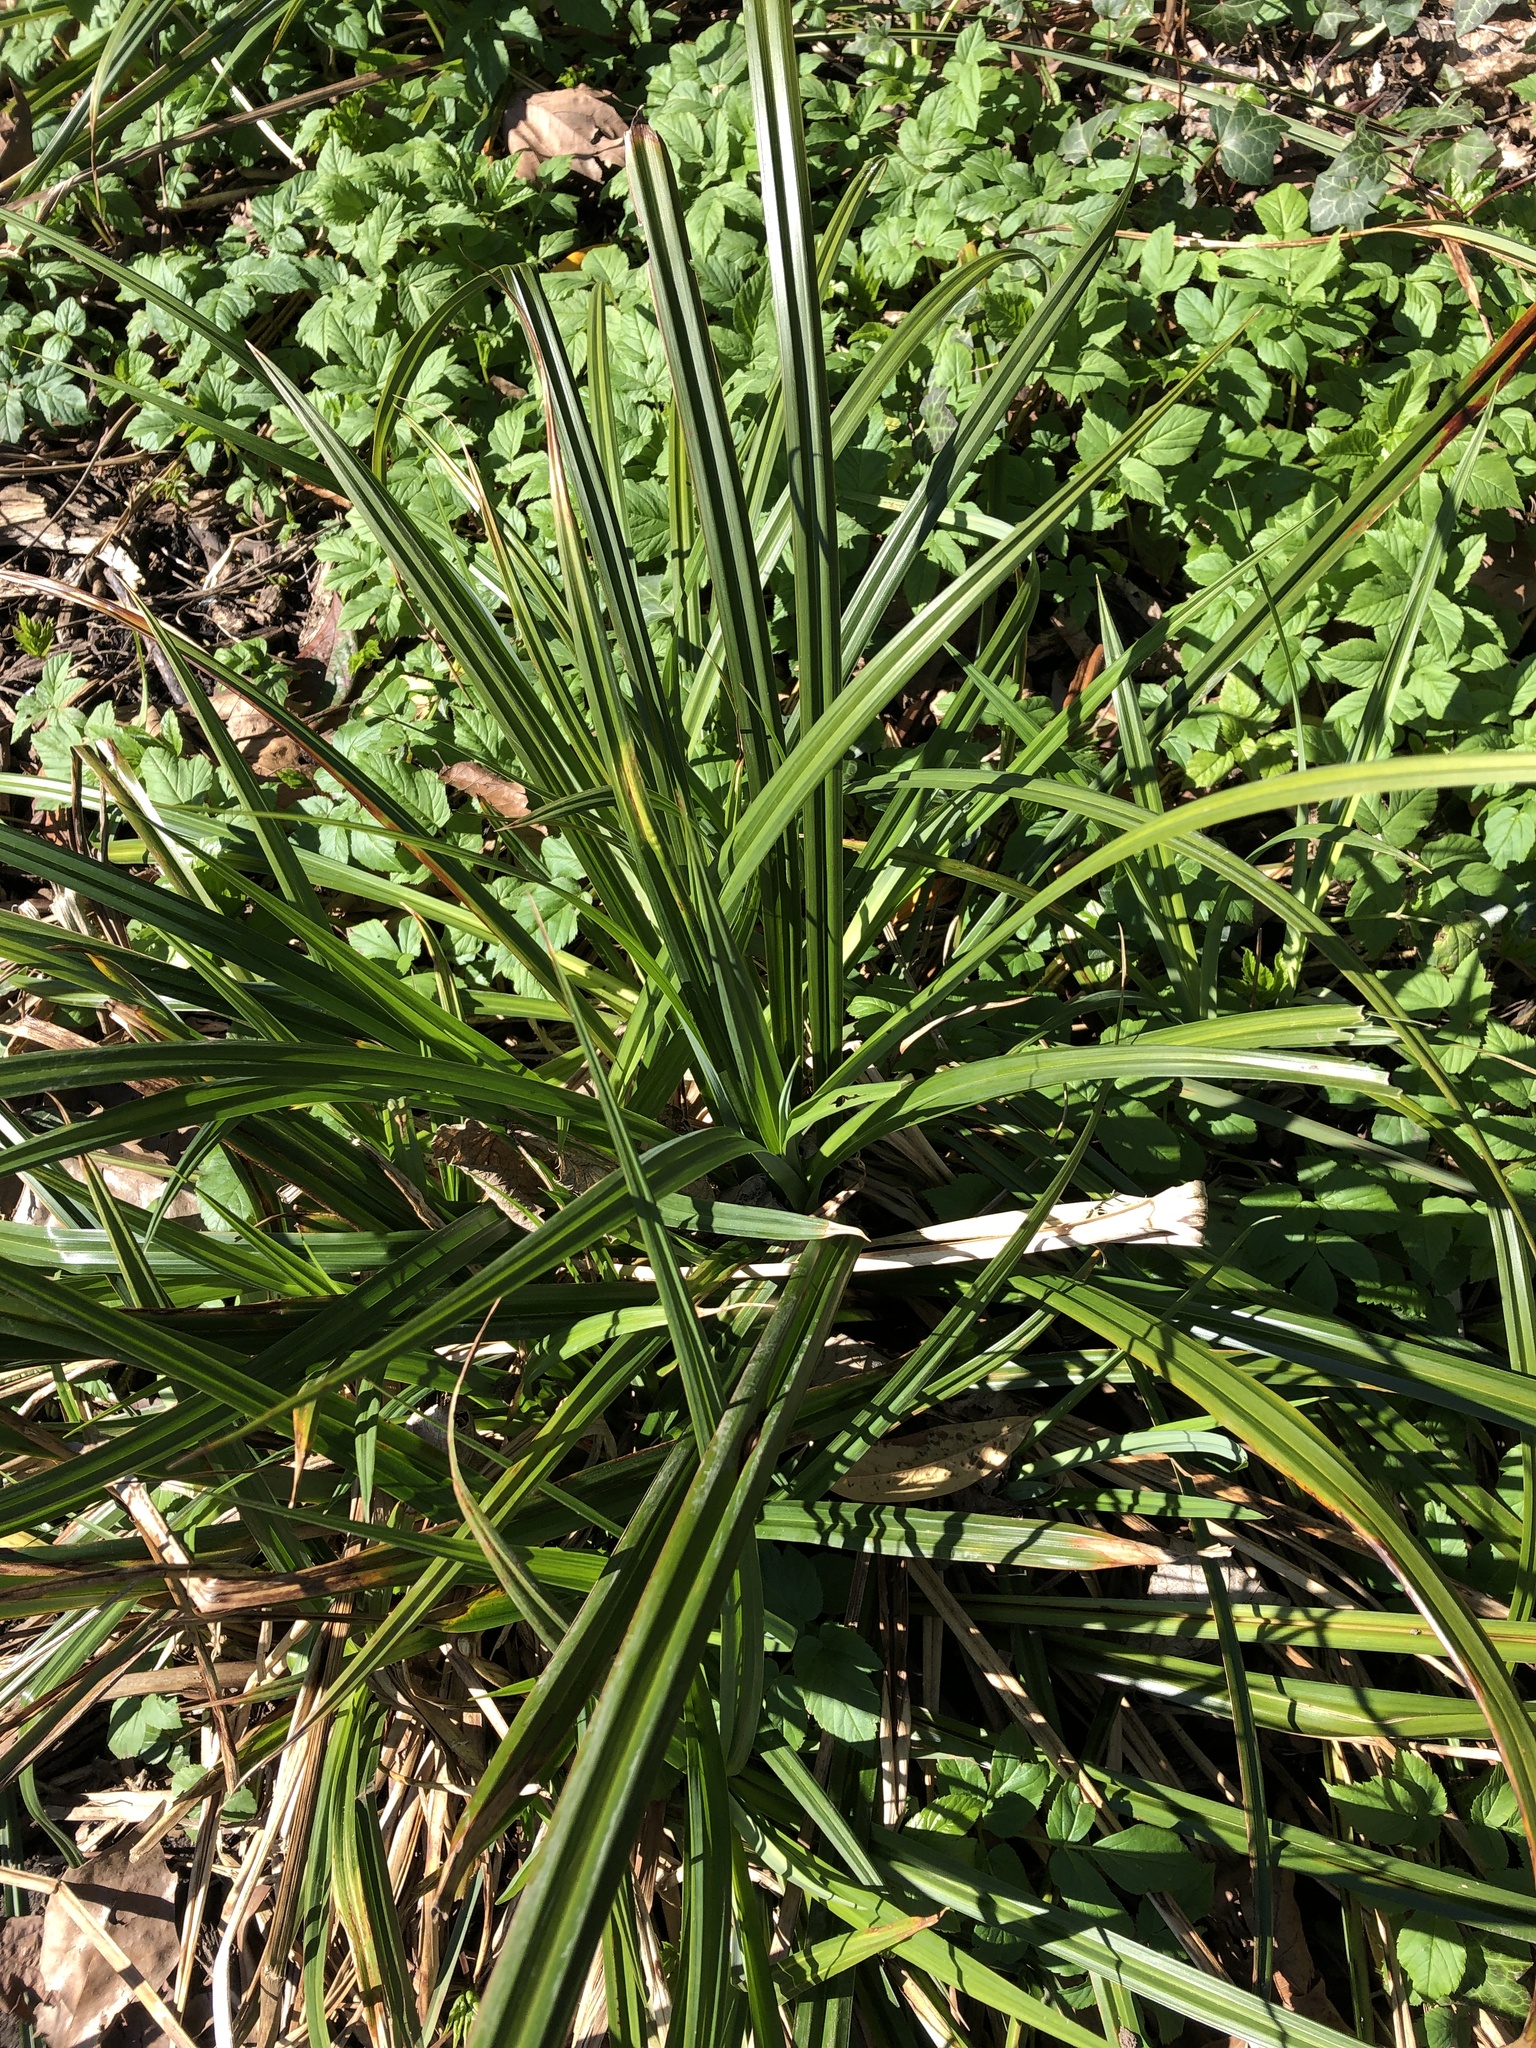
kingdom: Plantae
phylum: Tracheophyta
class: Liliopsida
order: Poales
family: Cyperaceae
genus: Carex
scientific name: Carex pendula
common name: Pendulous sedge
